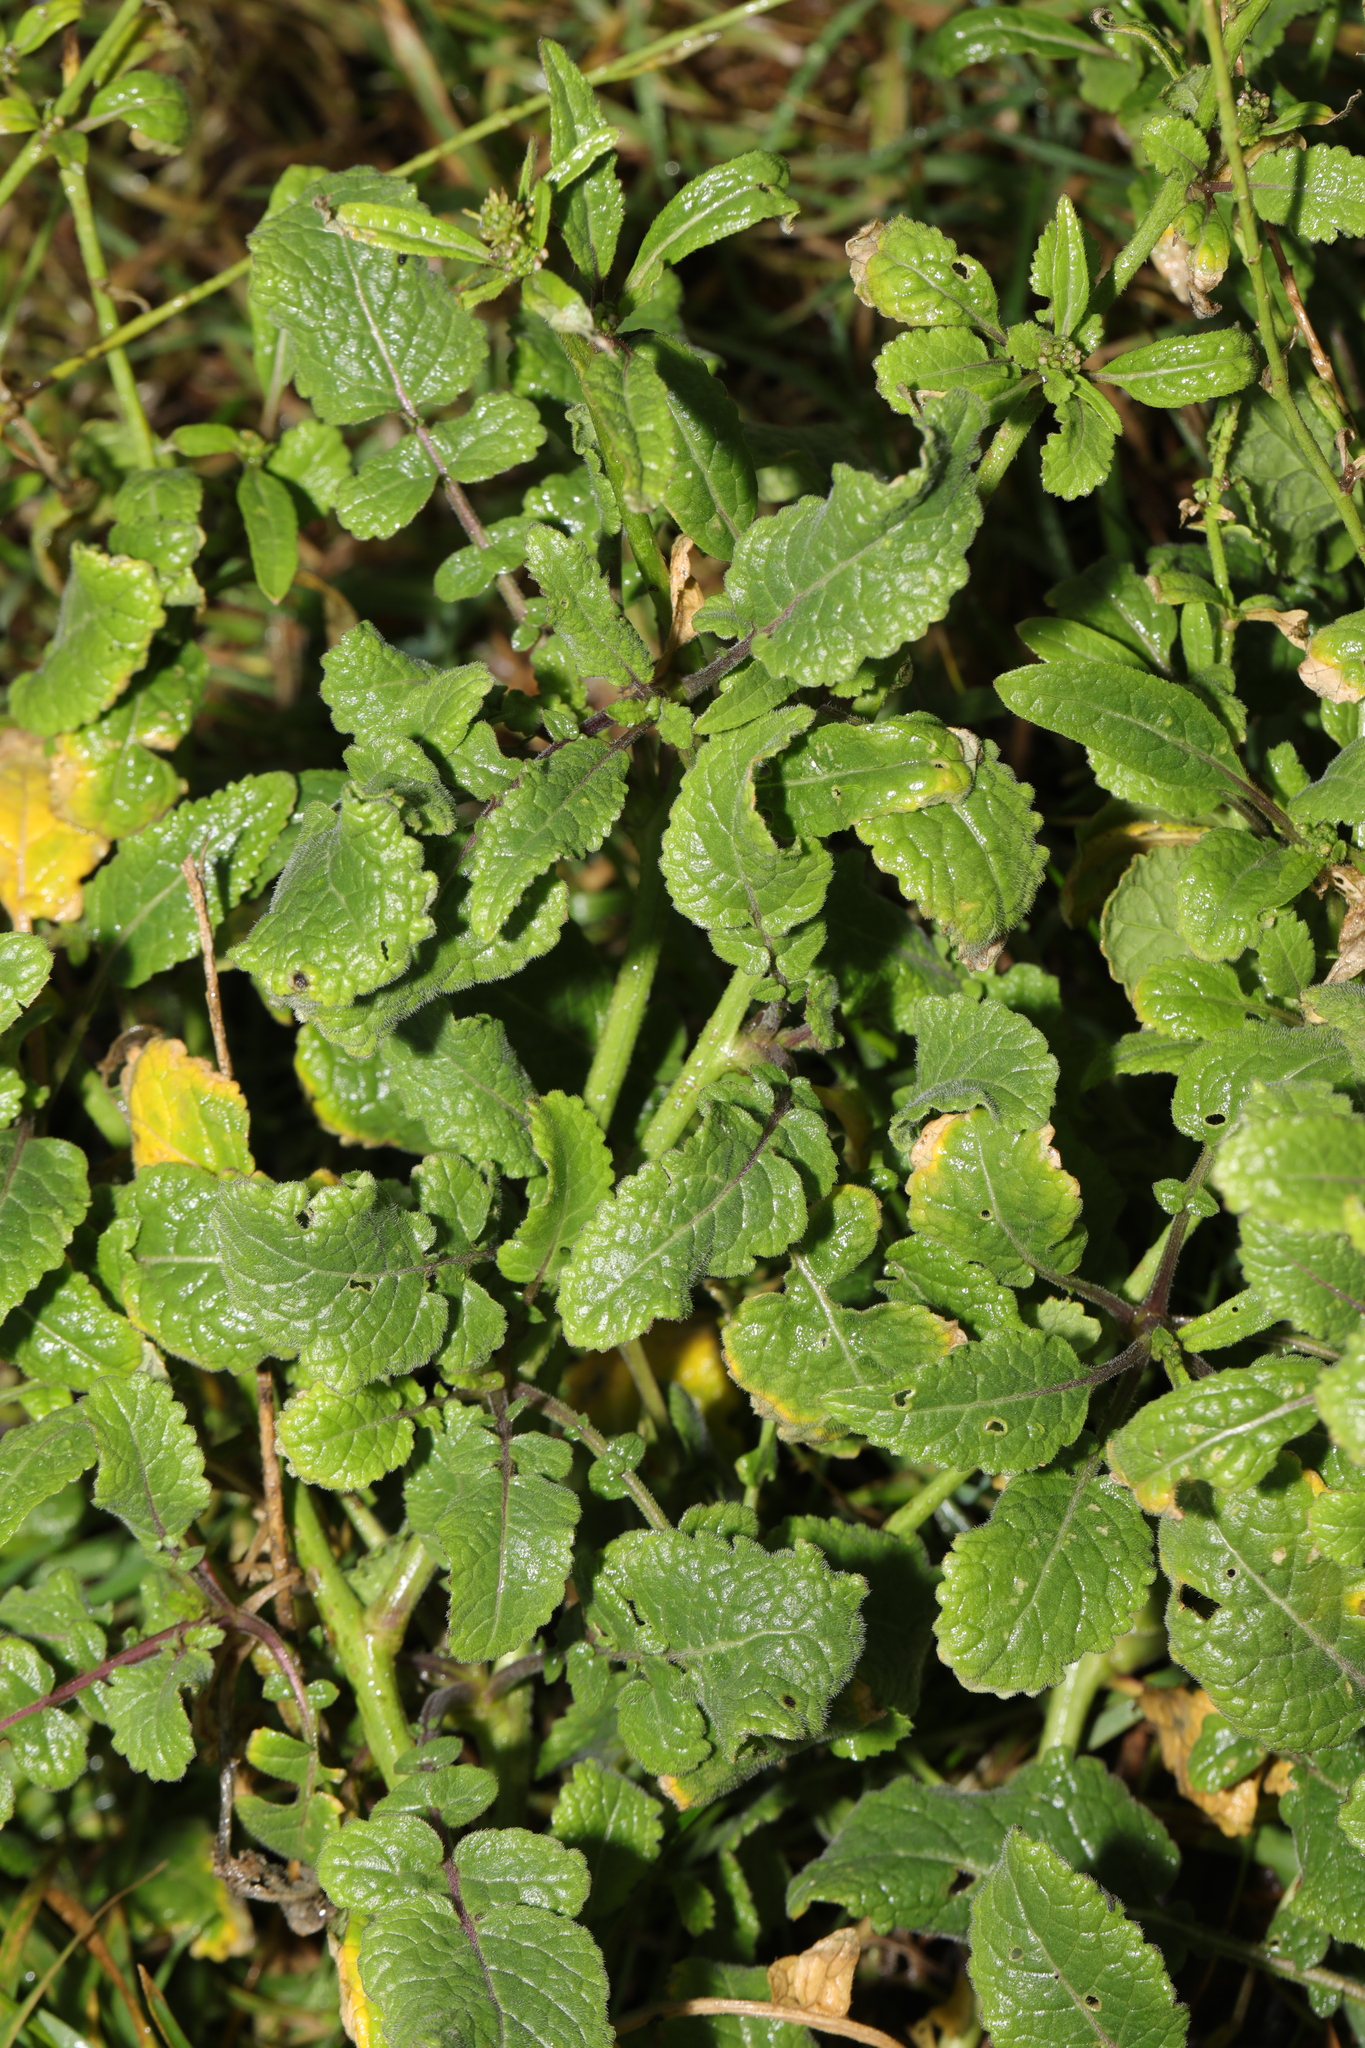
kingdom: Plantae
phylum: Tracheophyta
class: Magnoliopsida
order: Brassicales
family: Brassicaceae
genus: Raphanus
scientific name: Raphanus raphanistrum
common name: Wild radish
